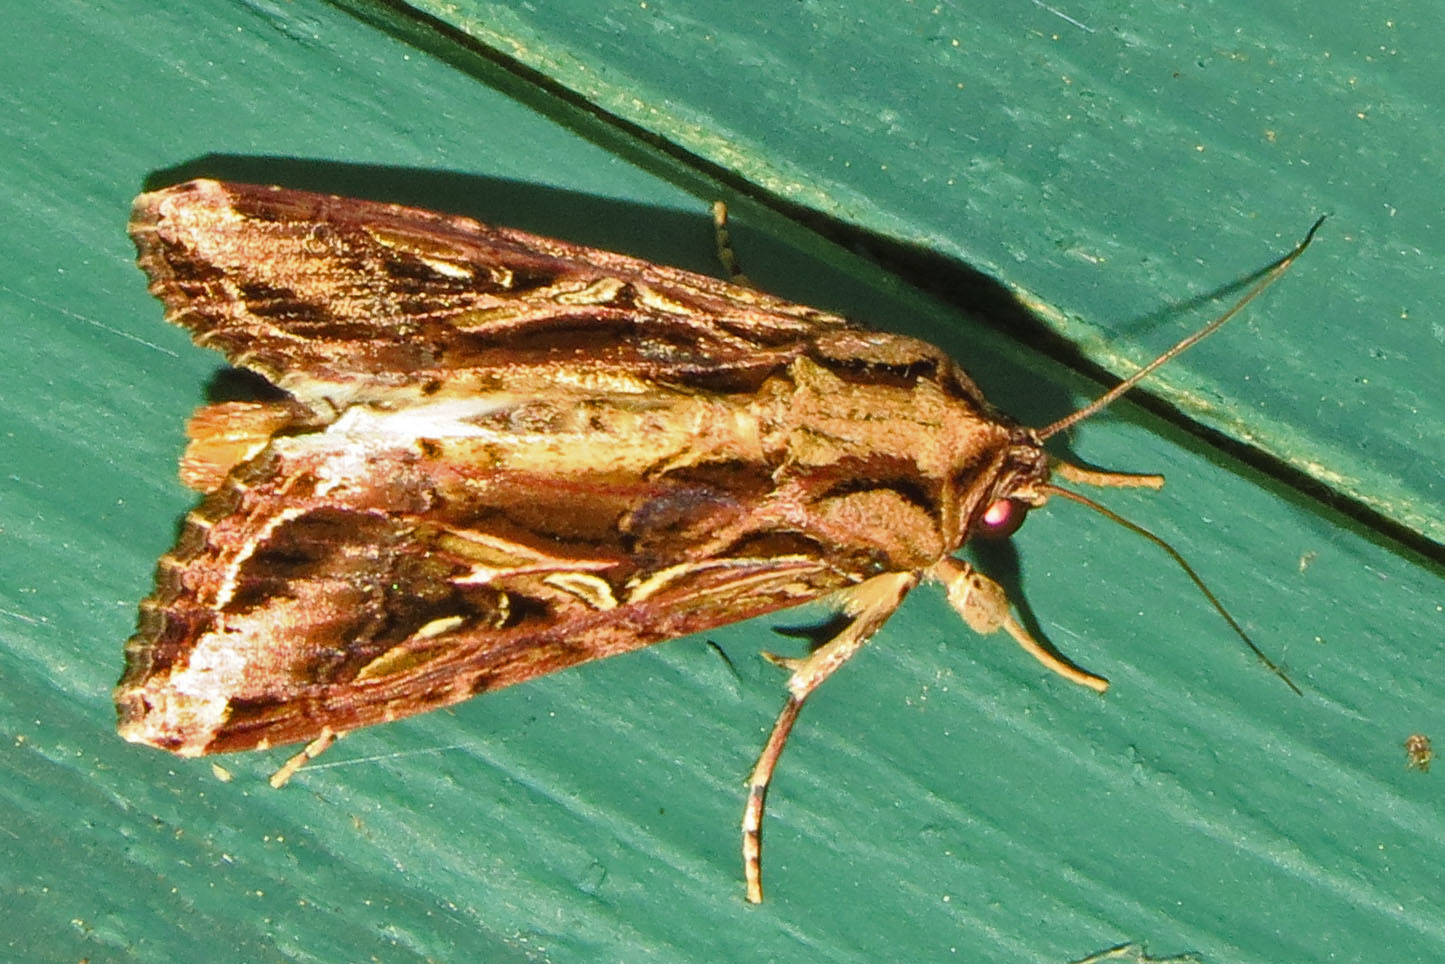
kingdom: Animalia
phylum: Arthropoda
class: Insecta
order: Lepidoptera
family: Noctuidae
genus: Spodoptera
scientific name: Spodoptera dolichos
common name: Sweetpotato armyworm
